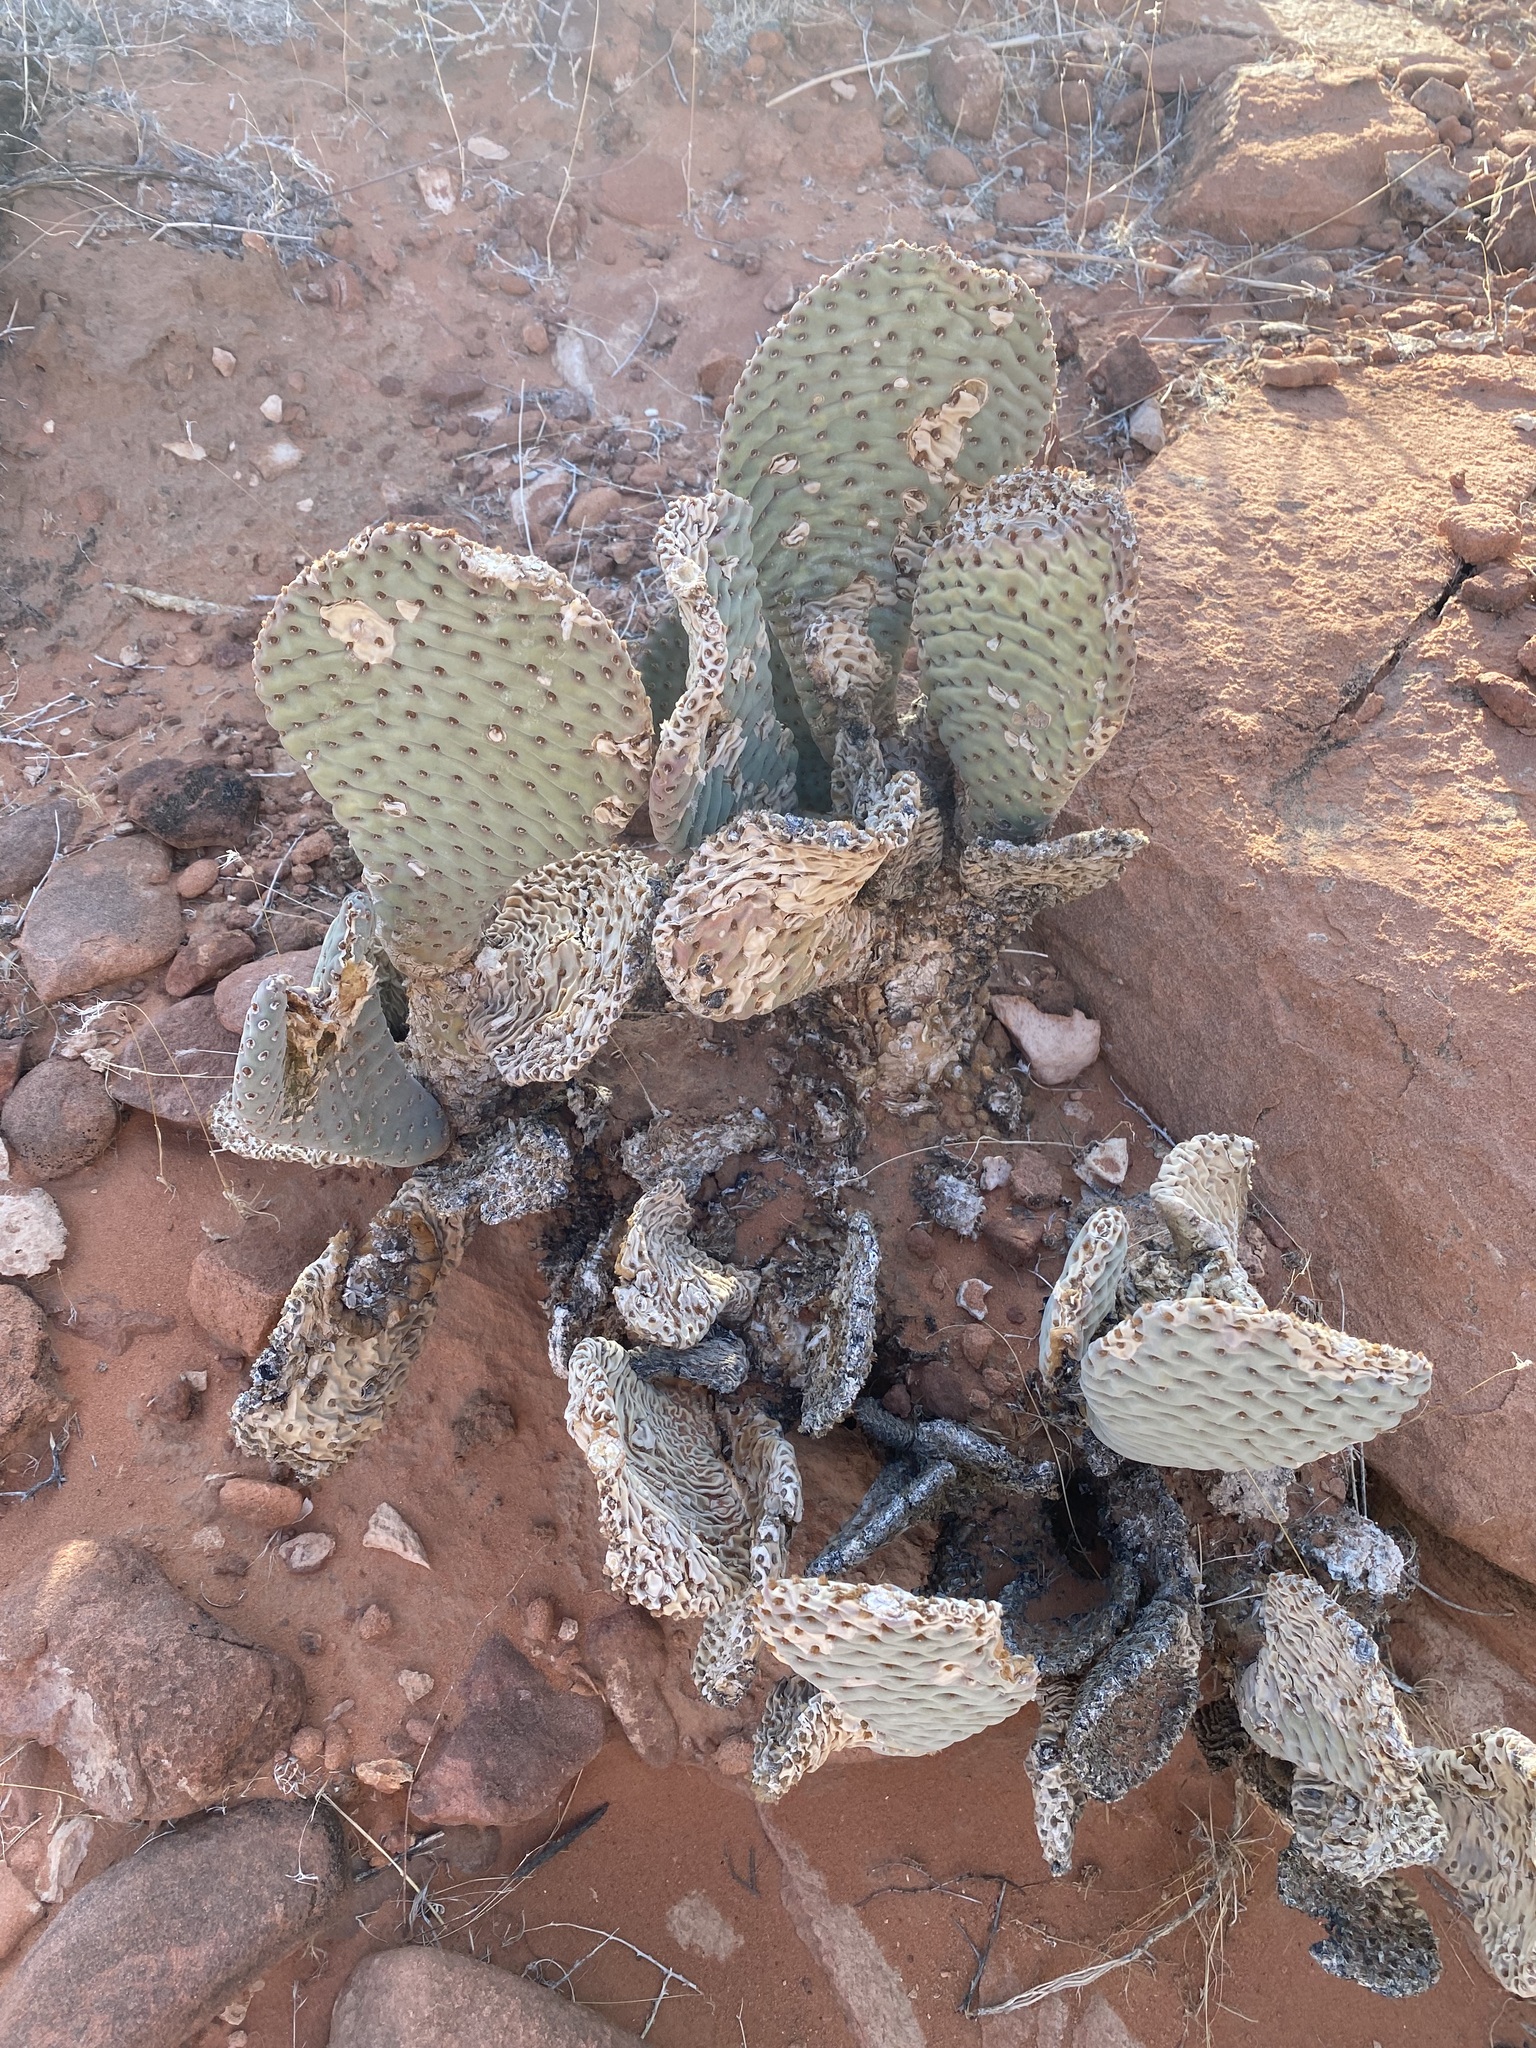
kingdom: Plantae
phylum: Tracheophyta
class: Magnoliopsida
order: Caryophyllales
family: Cactaceae
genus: Opuntia
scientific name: Opuntia basilaris
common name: Beavertail prickly-pear
